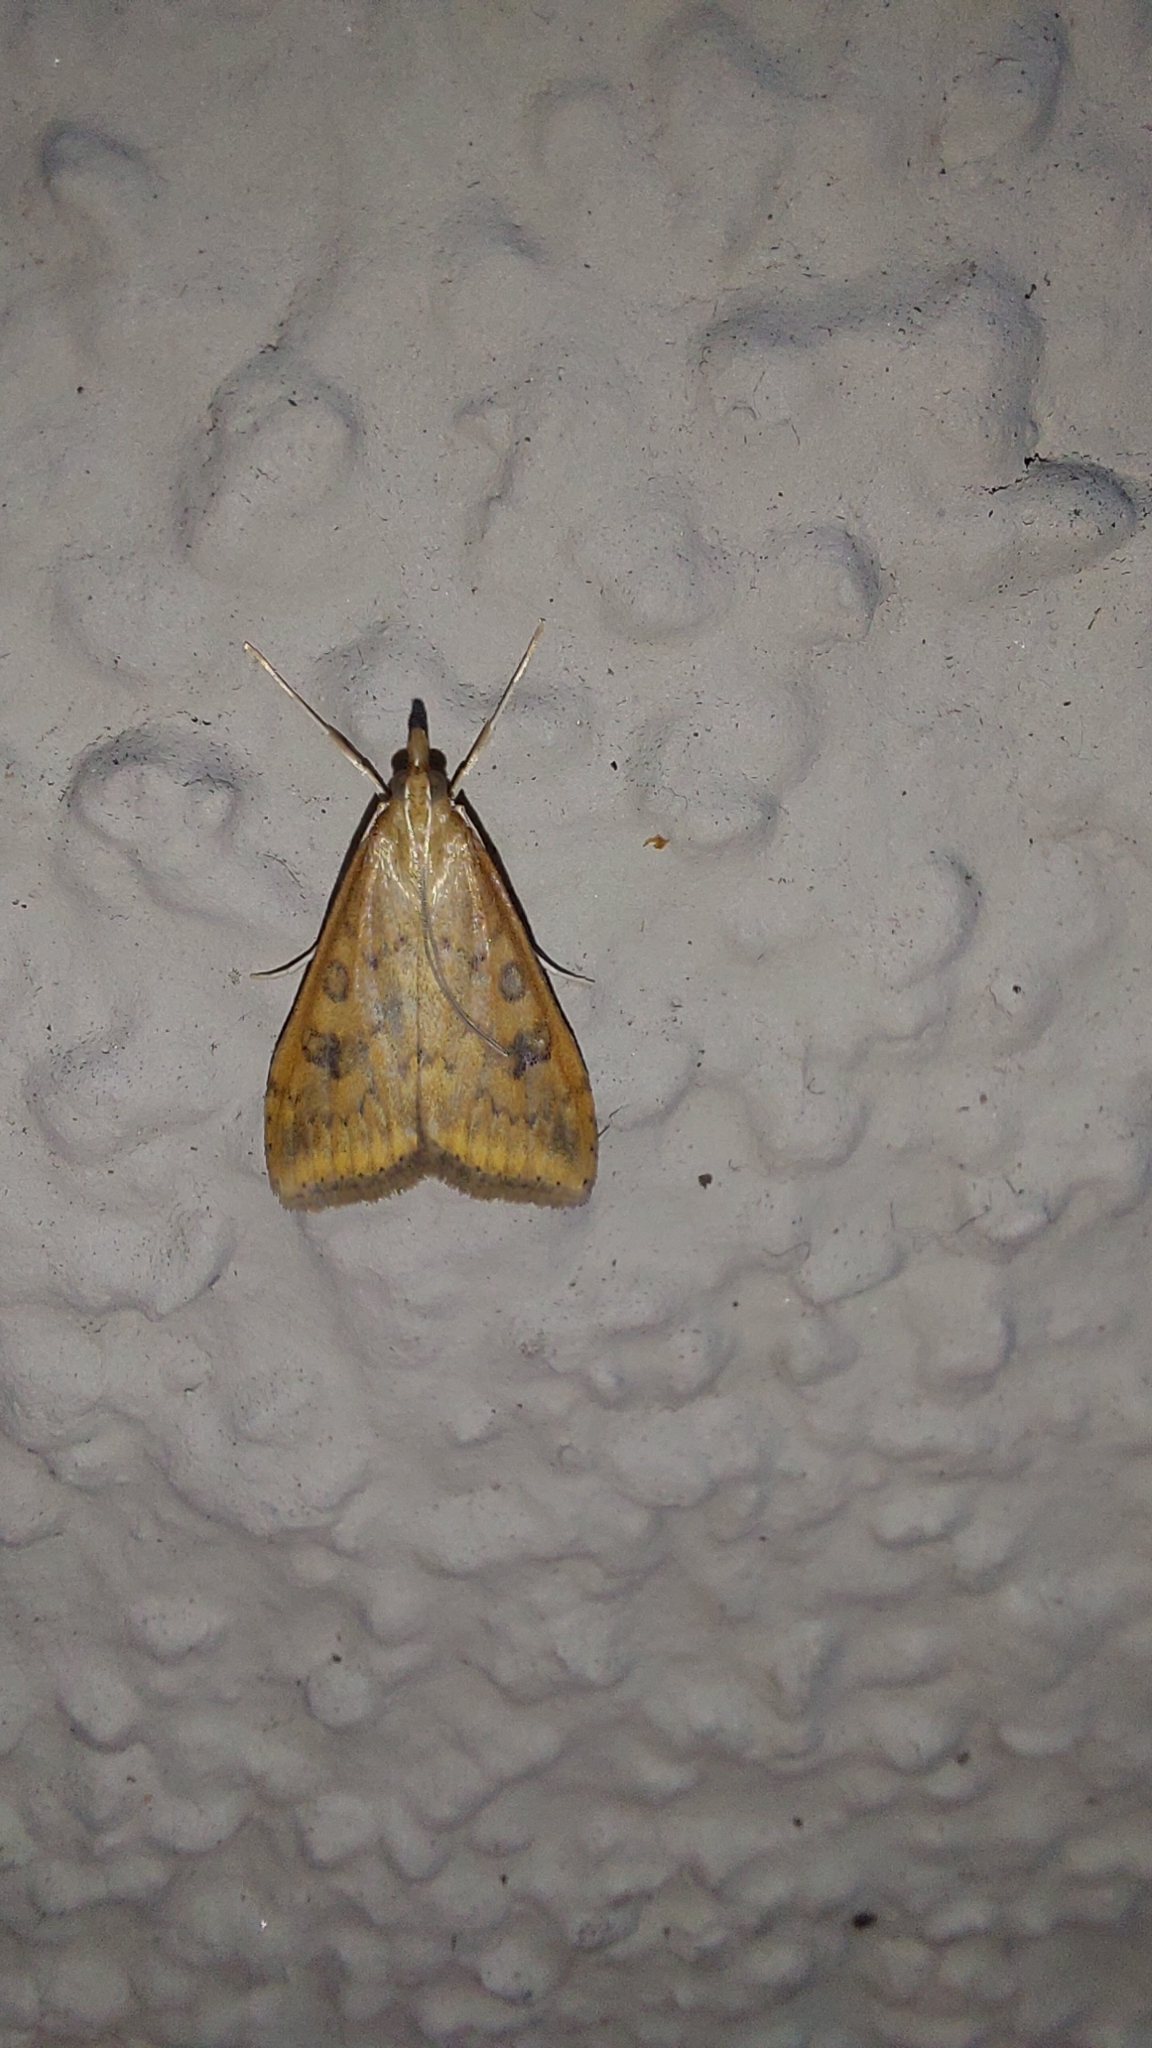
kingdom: Animalia
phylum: Arthropoda
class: Insecta
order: Lepidoptera
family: Crambidae
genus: Udea
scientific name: Udea ferrugalis
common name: Rusty dot
